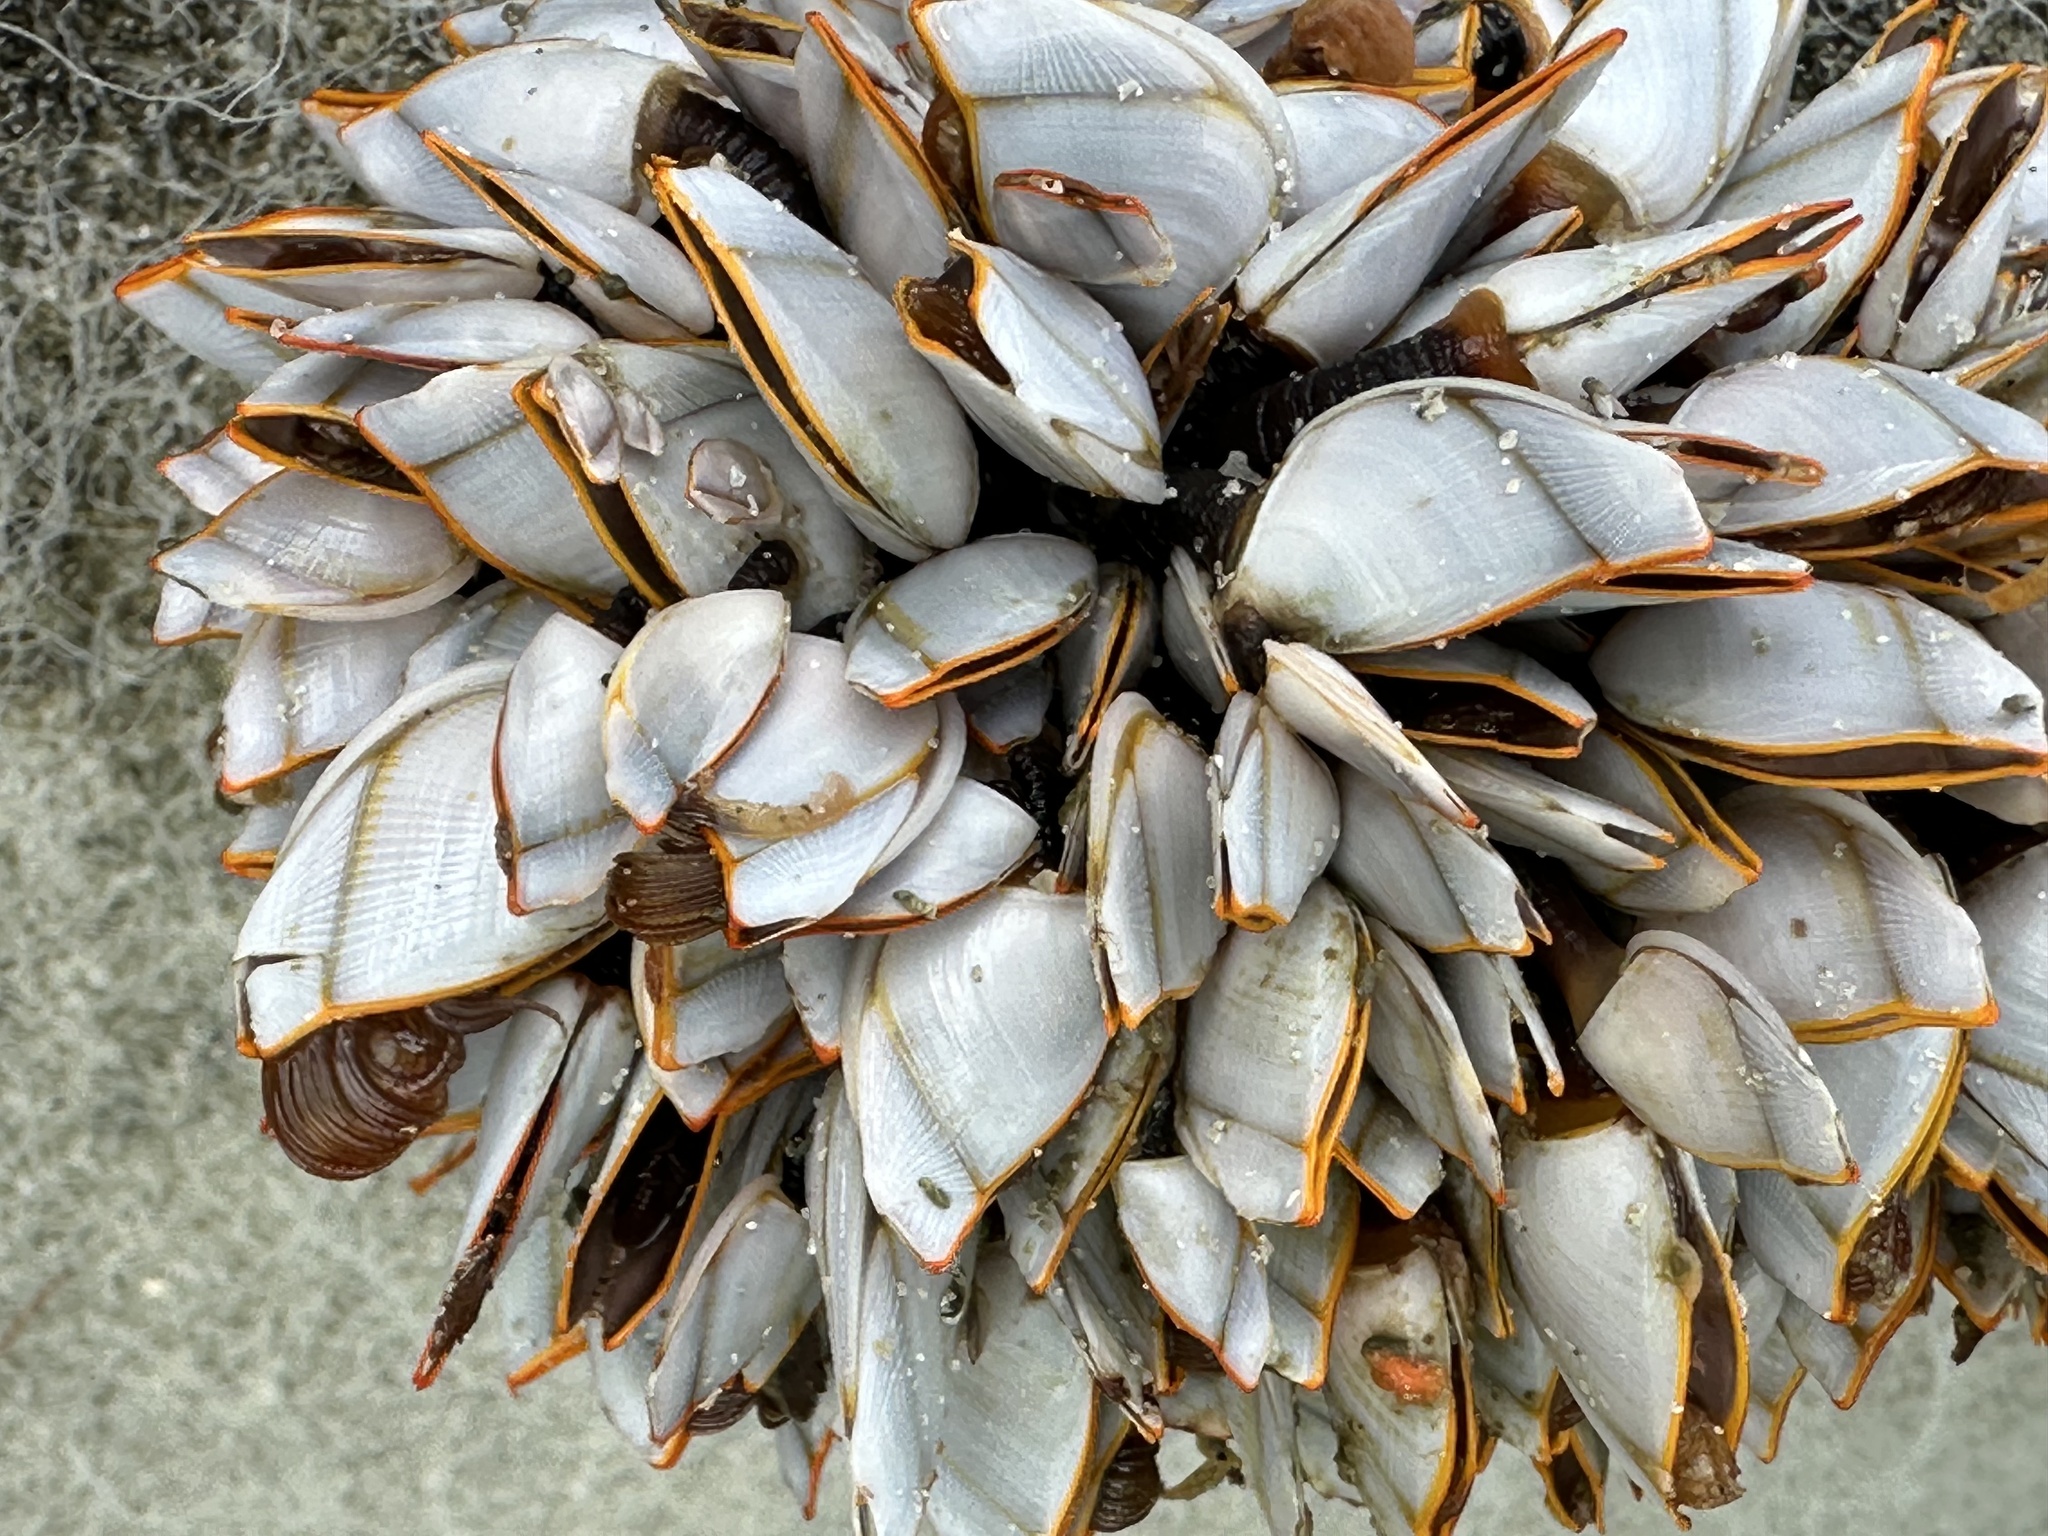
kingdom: Animalia
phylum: Arthropoda
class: Maxillopoda
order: Pedunculata
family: Lepadidae
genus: Lepas
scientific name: Lepas anserifera
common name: Goose barnacle
